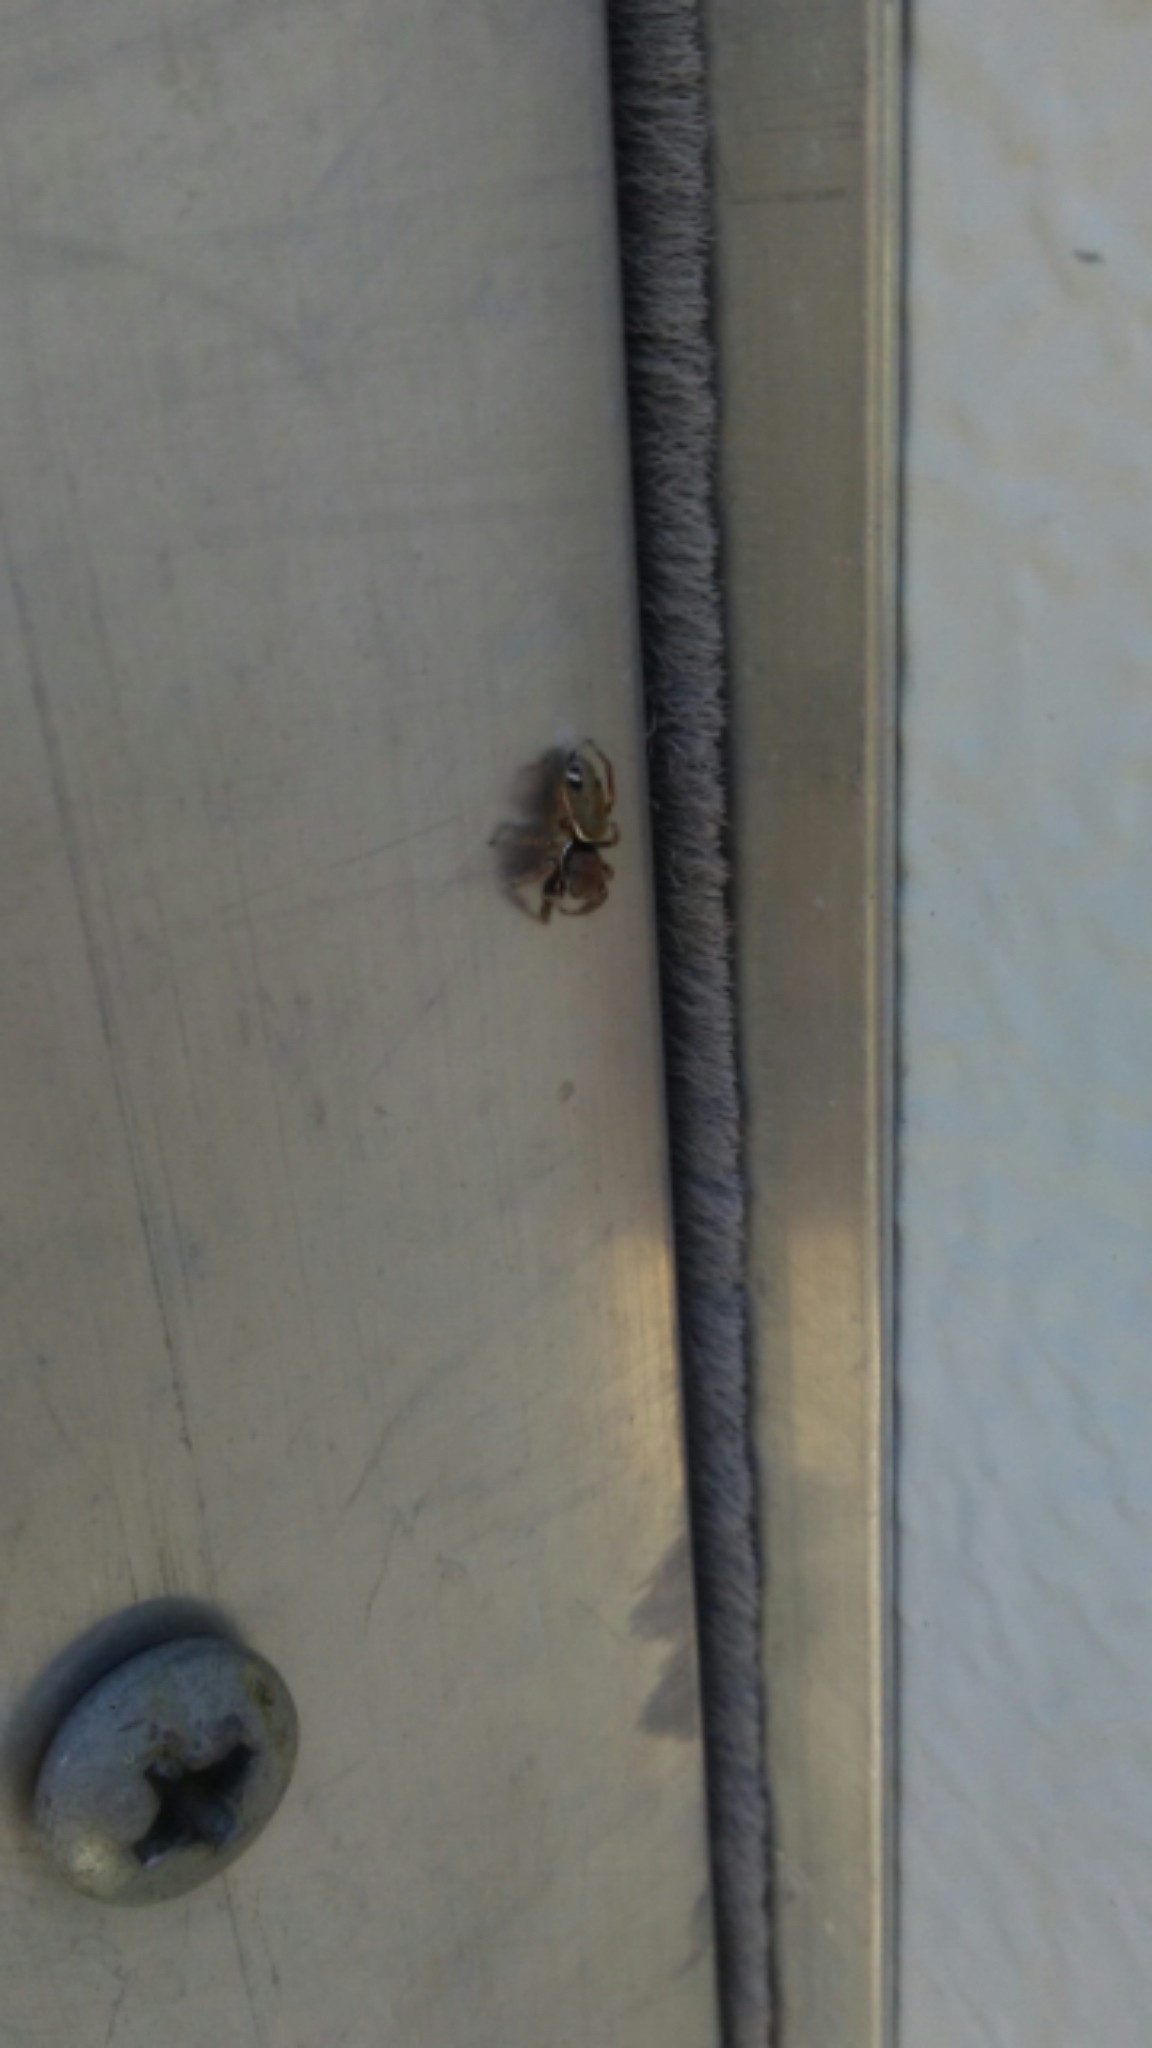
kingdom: Animalia
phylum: Arthropoda
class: Arachnida
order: Araneae
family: Salticidae
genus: Sassacus
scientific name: Sassacus vitis
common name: Jumping spiders
